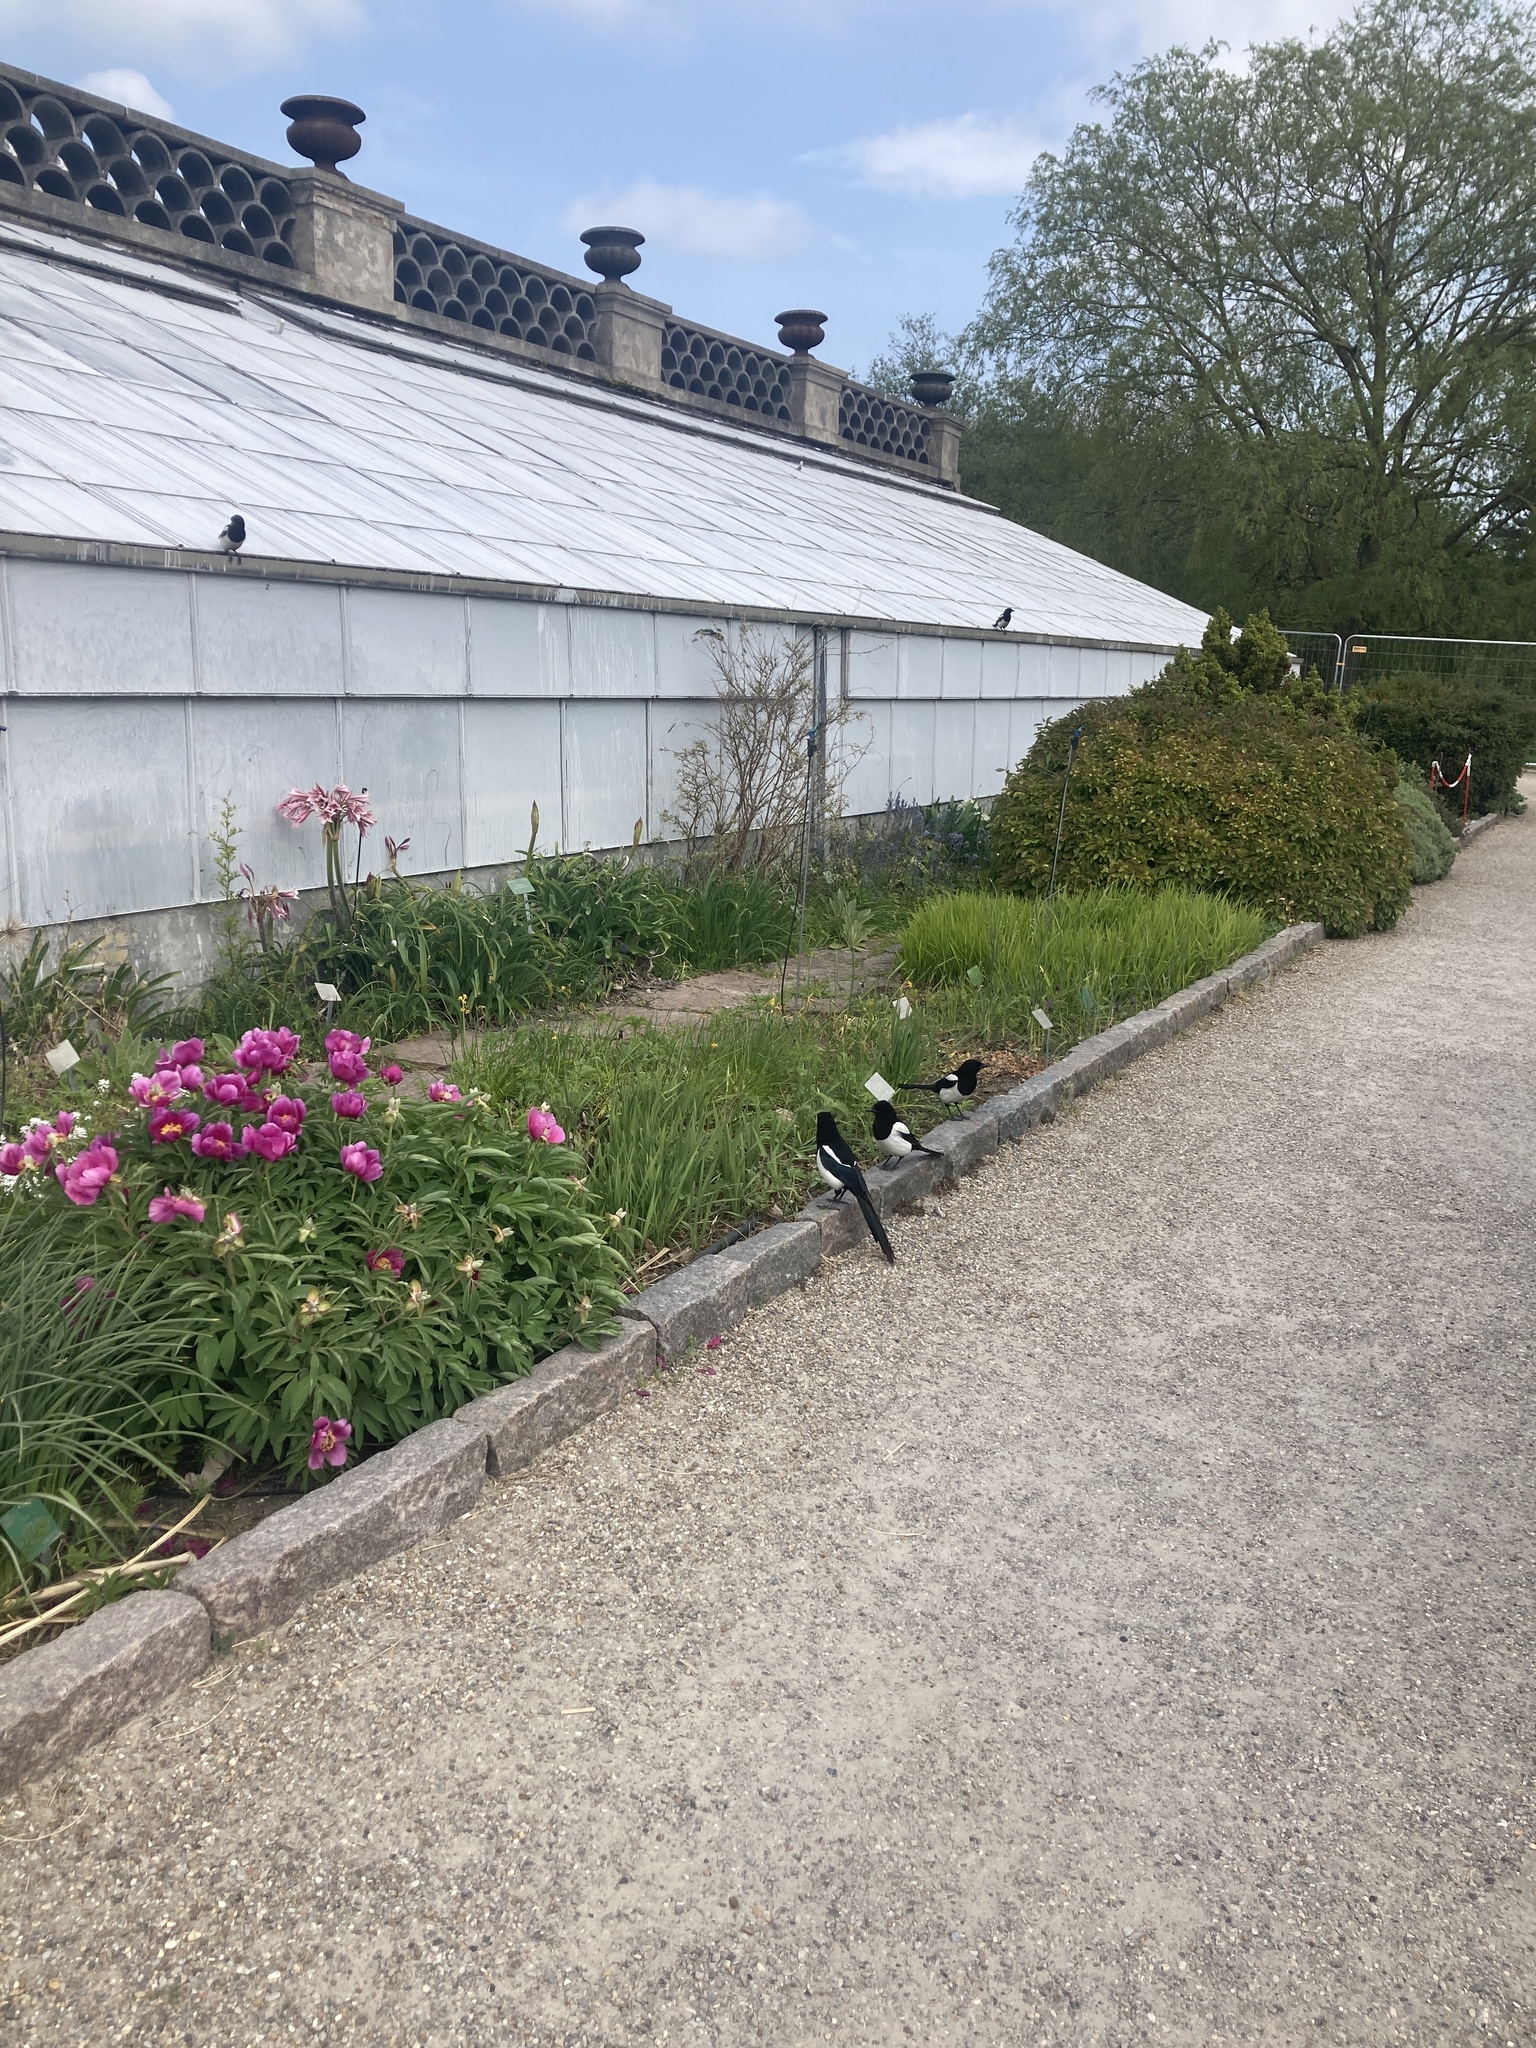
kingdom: Animalia
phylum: Chordata
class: Aves
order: Passeriformes
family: Corvidae
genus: Pica
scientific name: Pica pica
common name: Eurasian magpie
